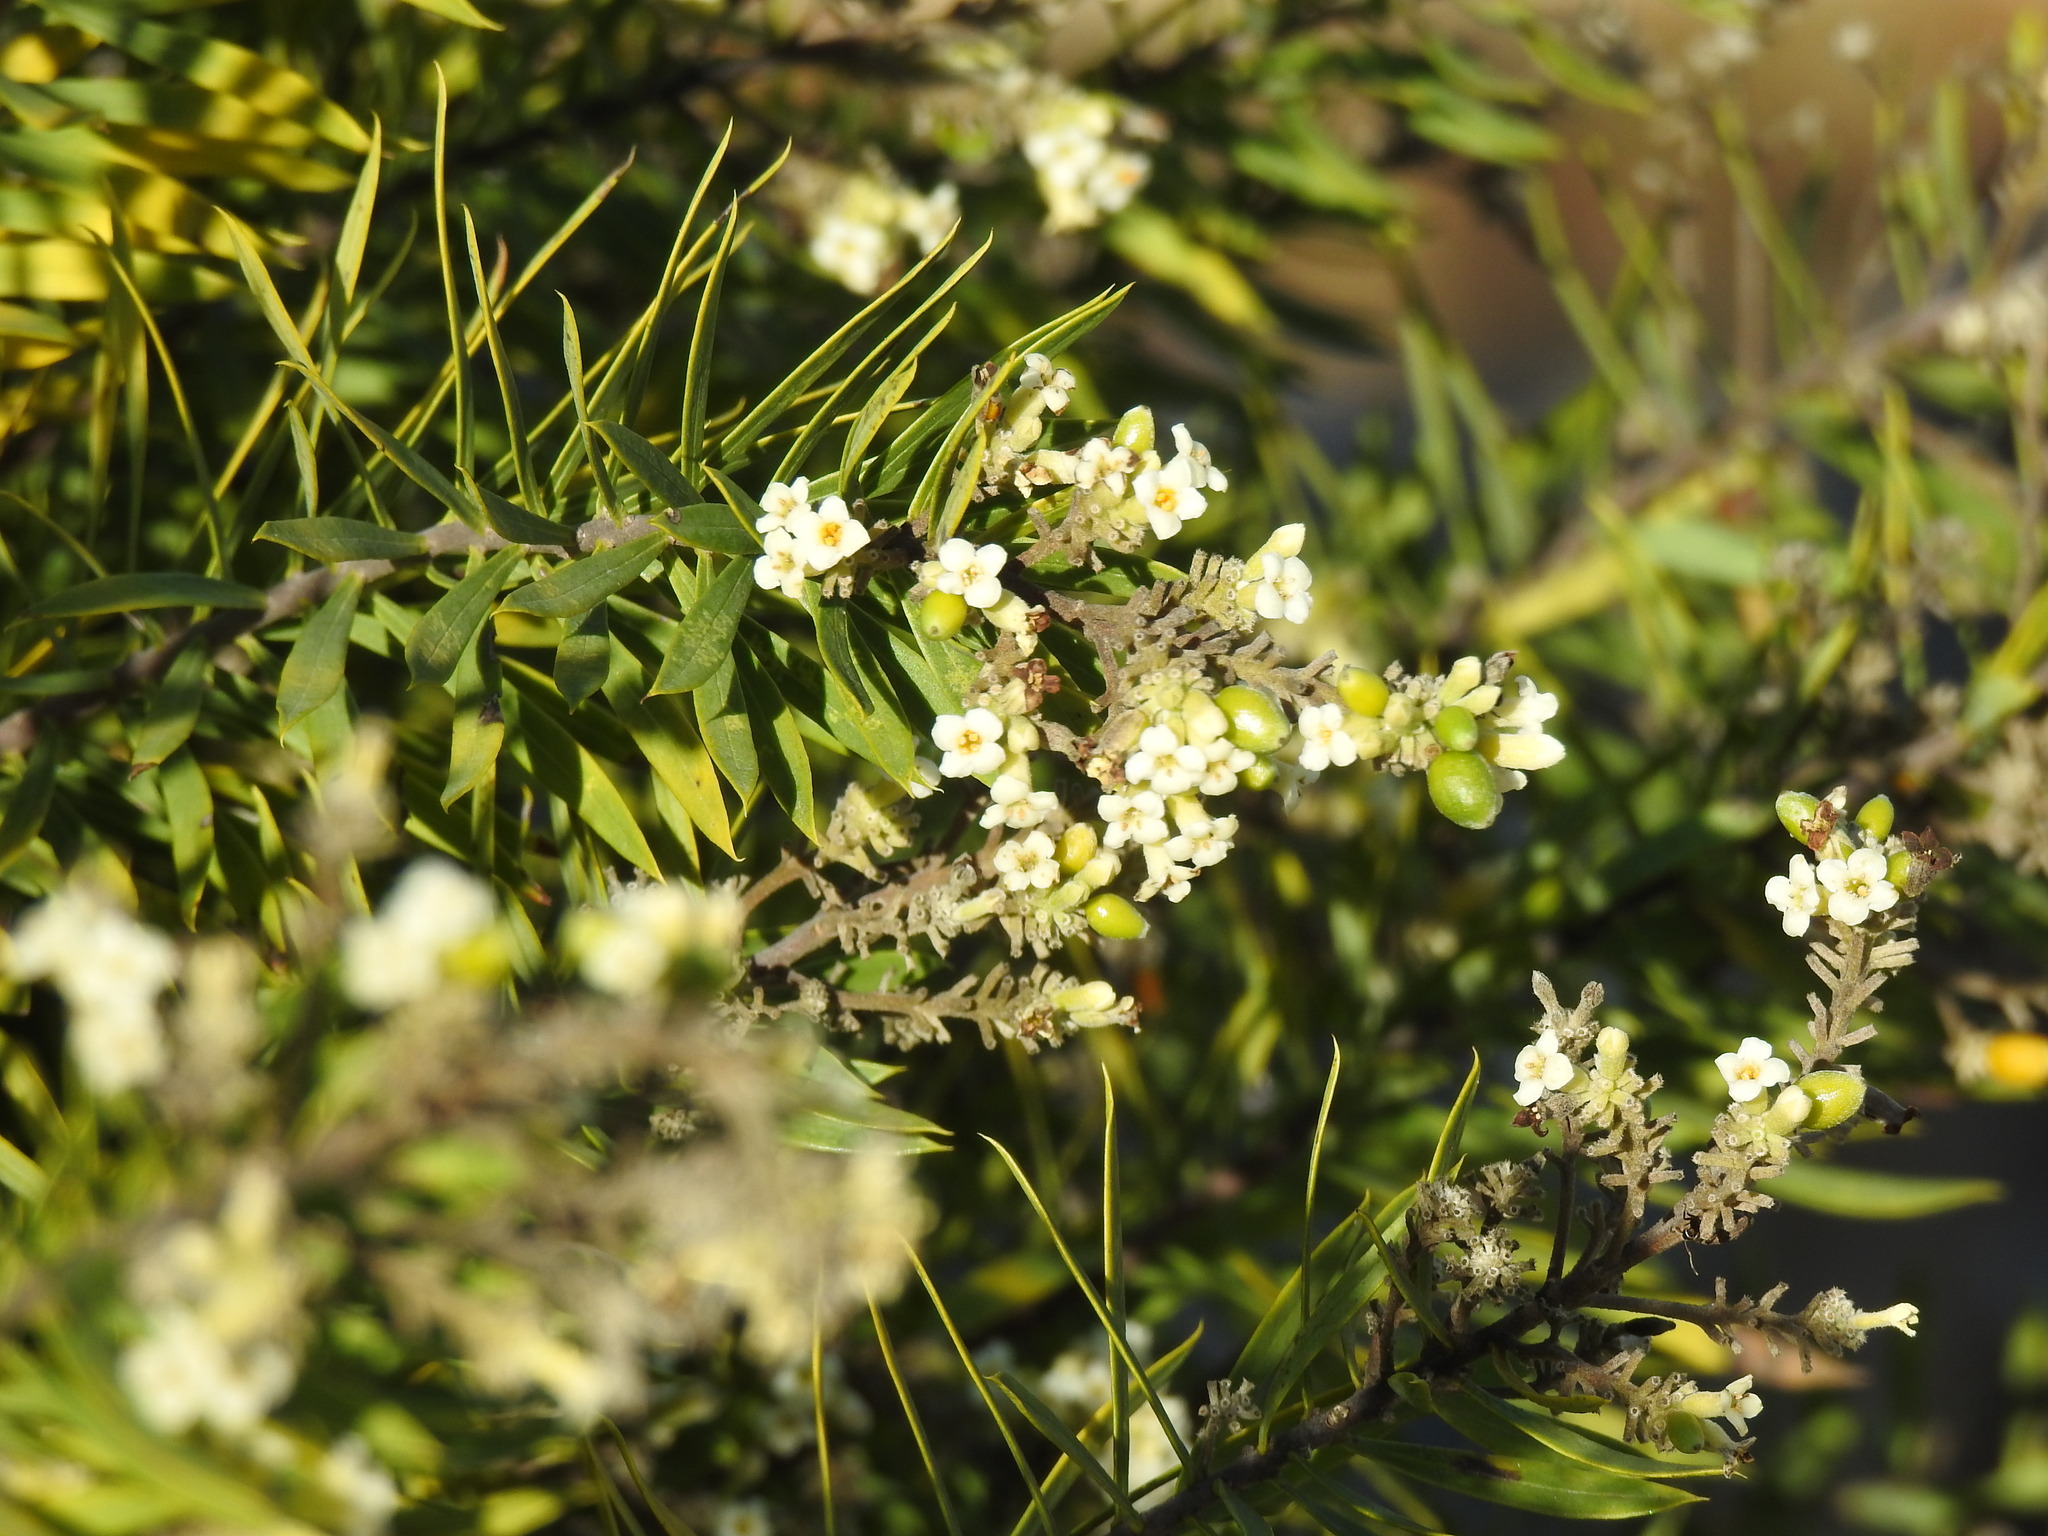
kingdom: Plantae
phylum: Tracheophyta
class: Magnoliopsida
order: Malvales
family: Thymelaeaceae
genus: Daphne
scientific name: Daphne gnidium
